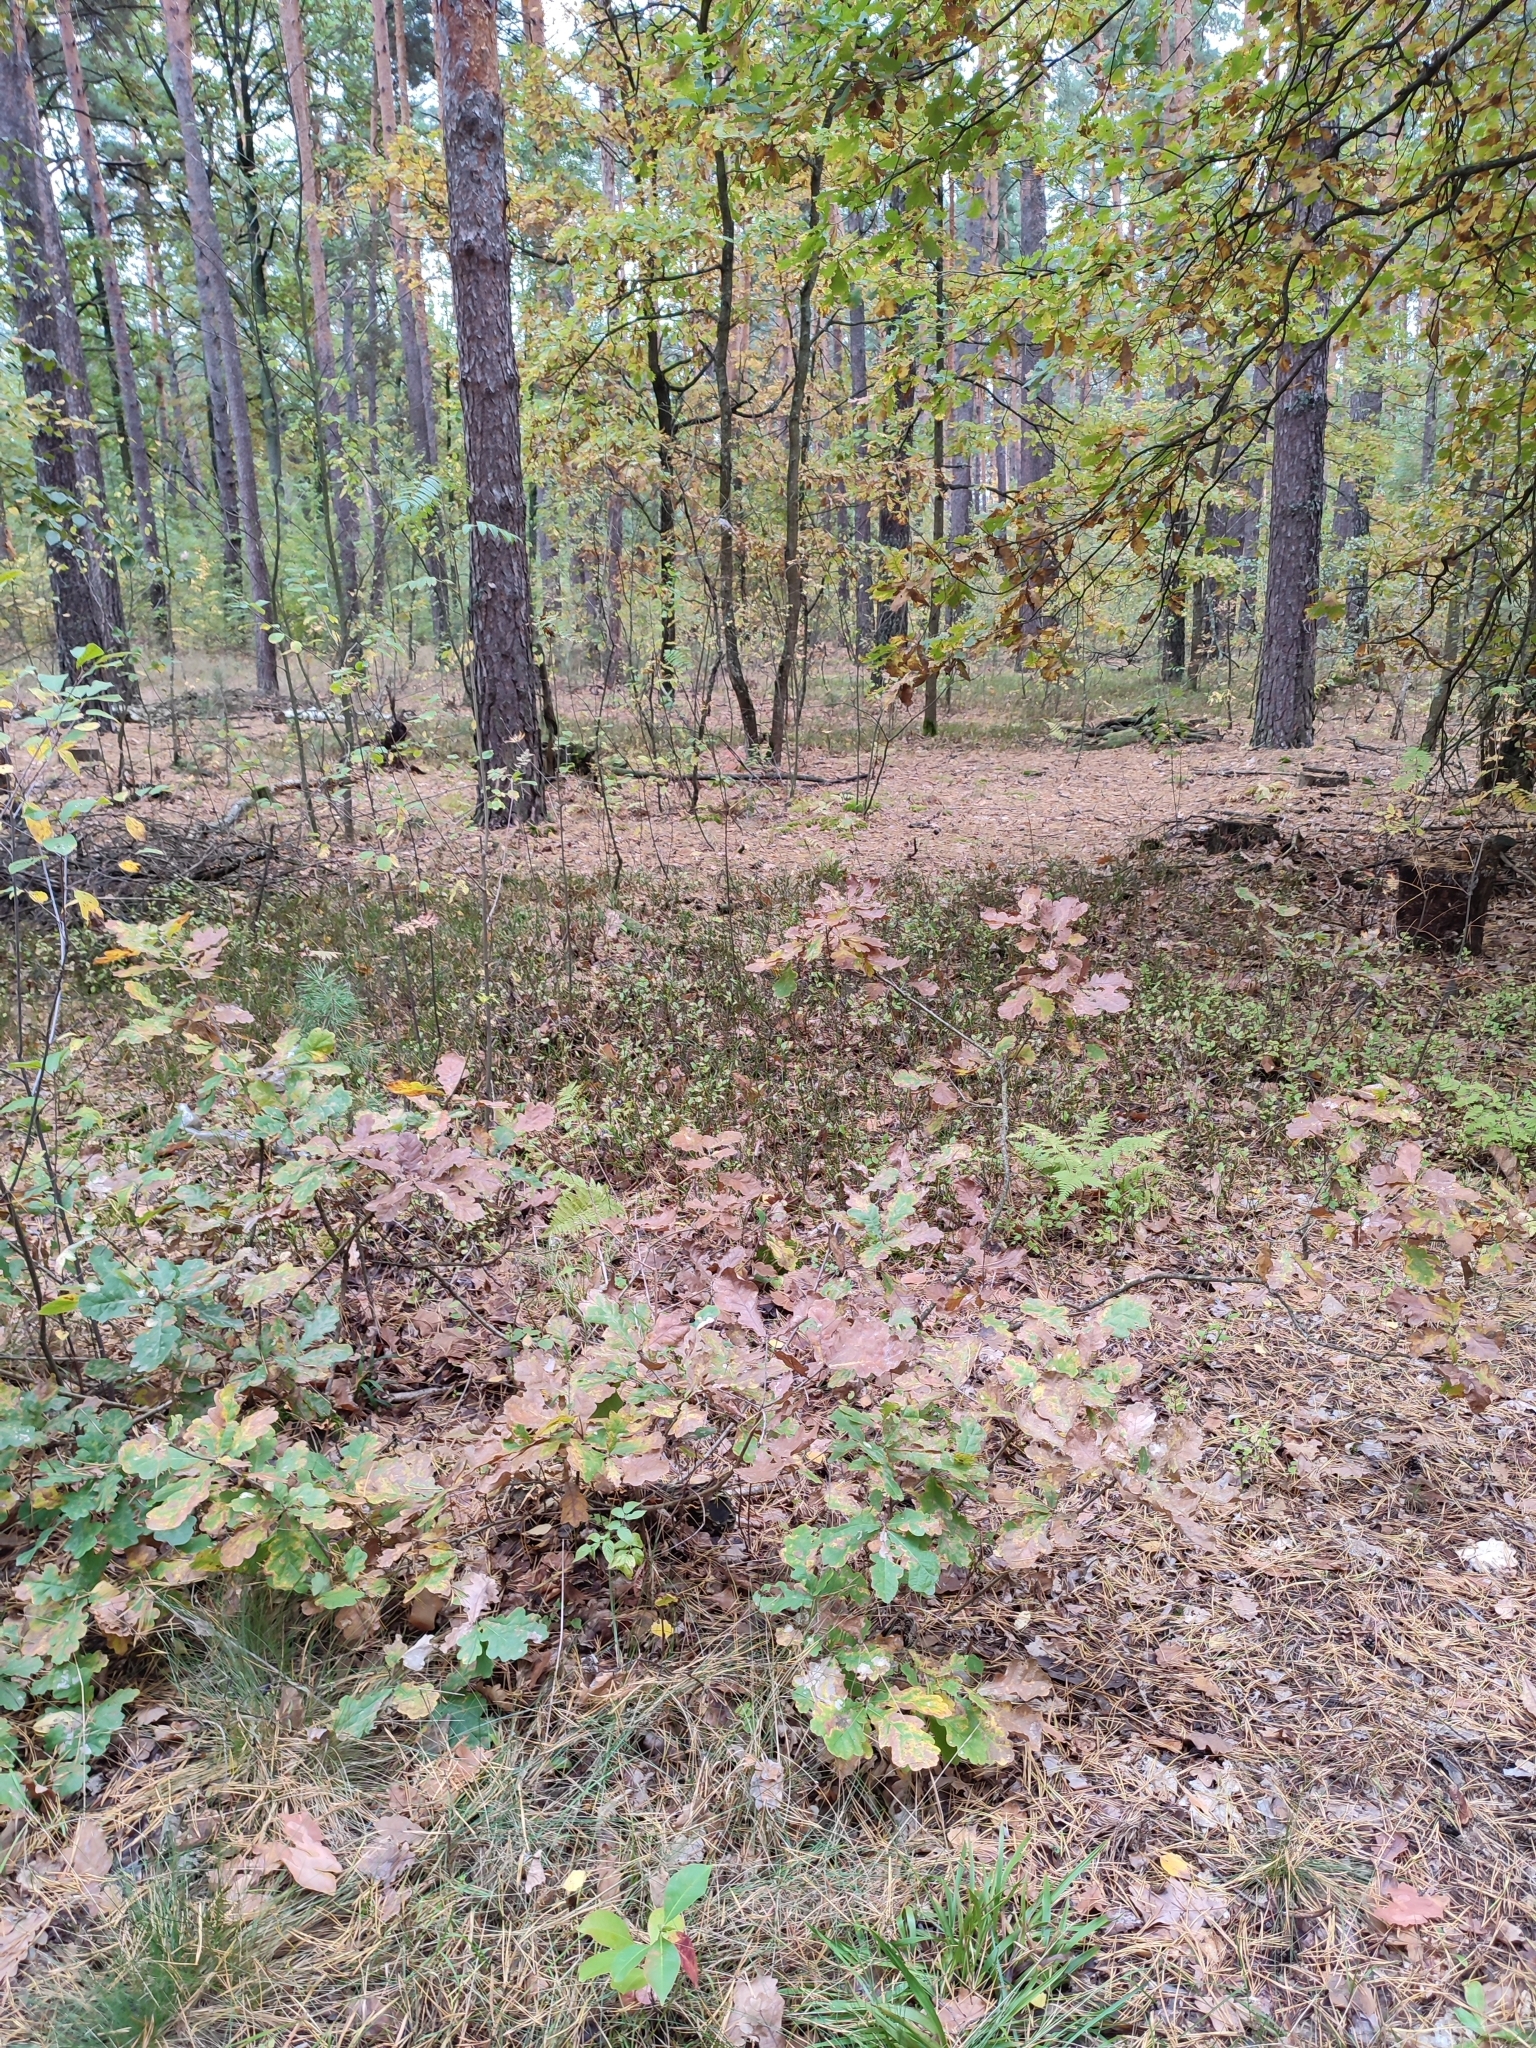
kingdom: Plantae
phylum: Tracheophyta
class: Magnoliopsida
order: Fagales
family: Fagaceae
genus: Quercus
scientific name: Quercus robur
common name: Pedunculate oak
